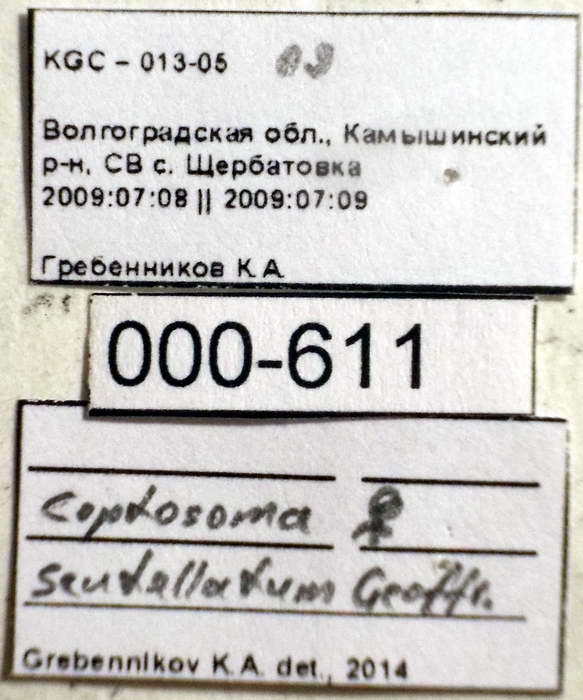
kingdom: Animalia
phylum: Arthropoda
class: Insecta
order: Hemiptera
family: Plataspidae
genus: Coptosoma
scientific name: Coptosoma scutellatum
